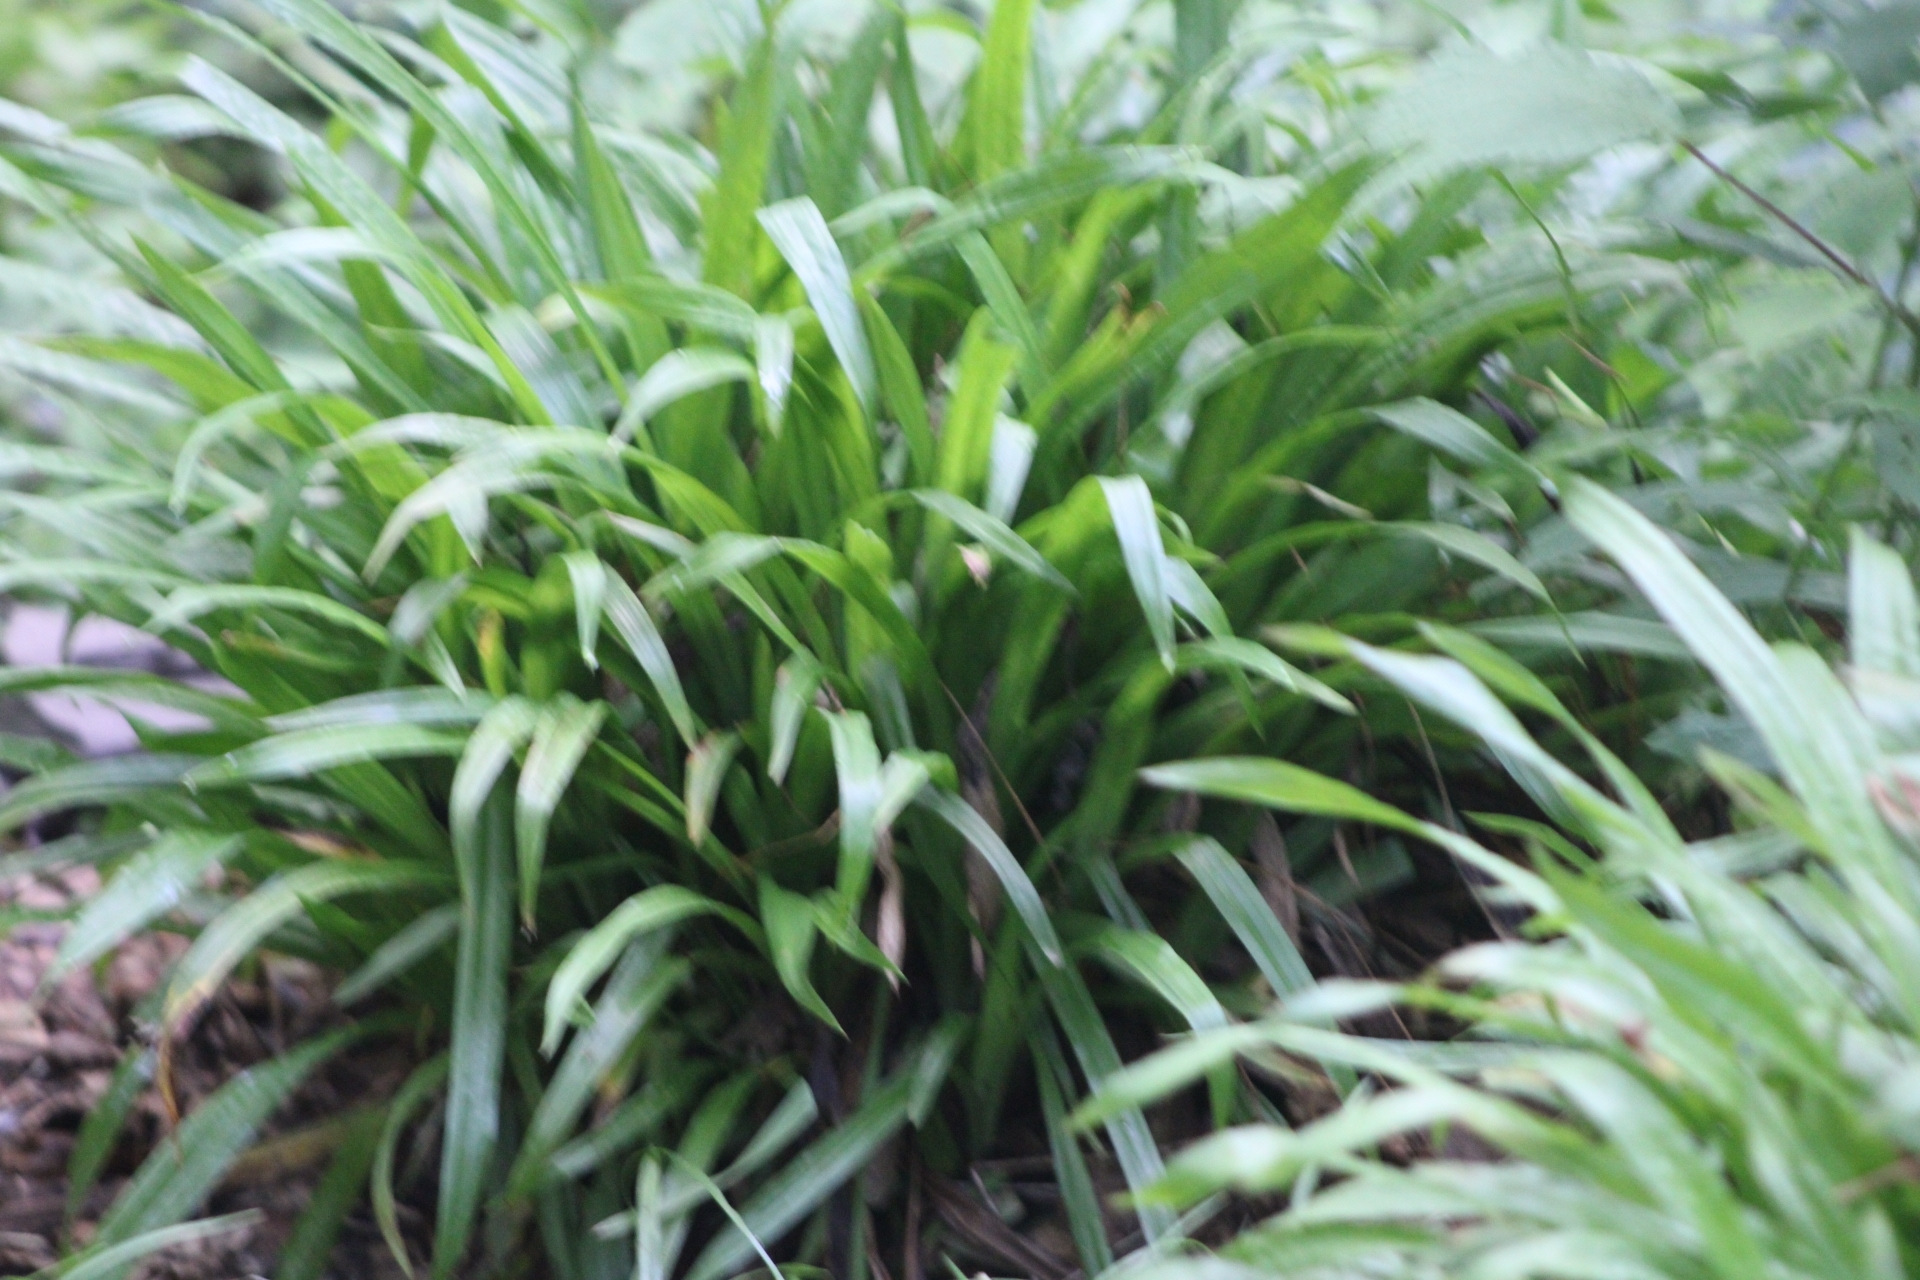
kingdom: Plantae
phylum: Tracheophyta
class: Liliopsida
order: Poales
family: Cyperaceae
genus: Carex
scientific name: Carex plantaginea
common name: Plantain-leaved sedge
